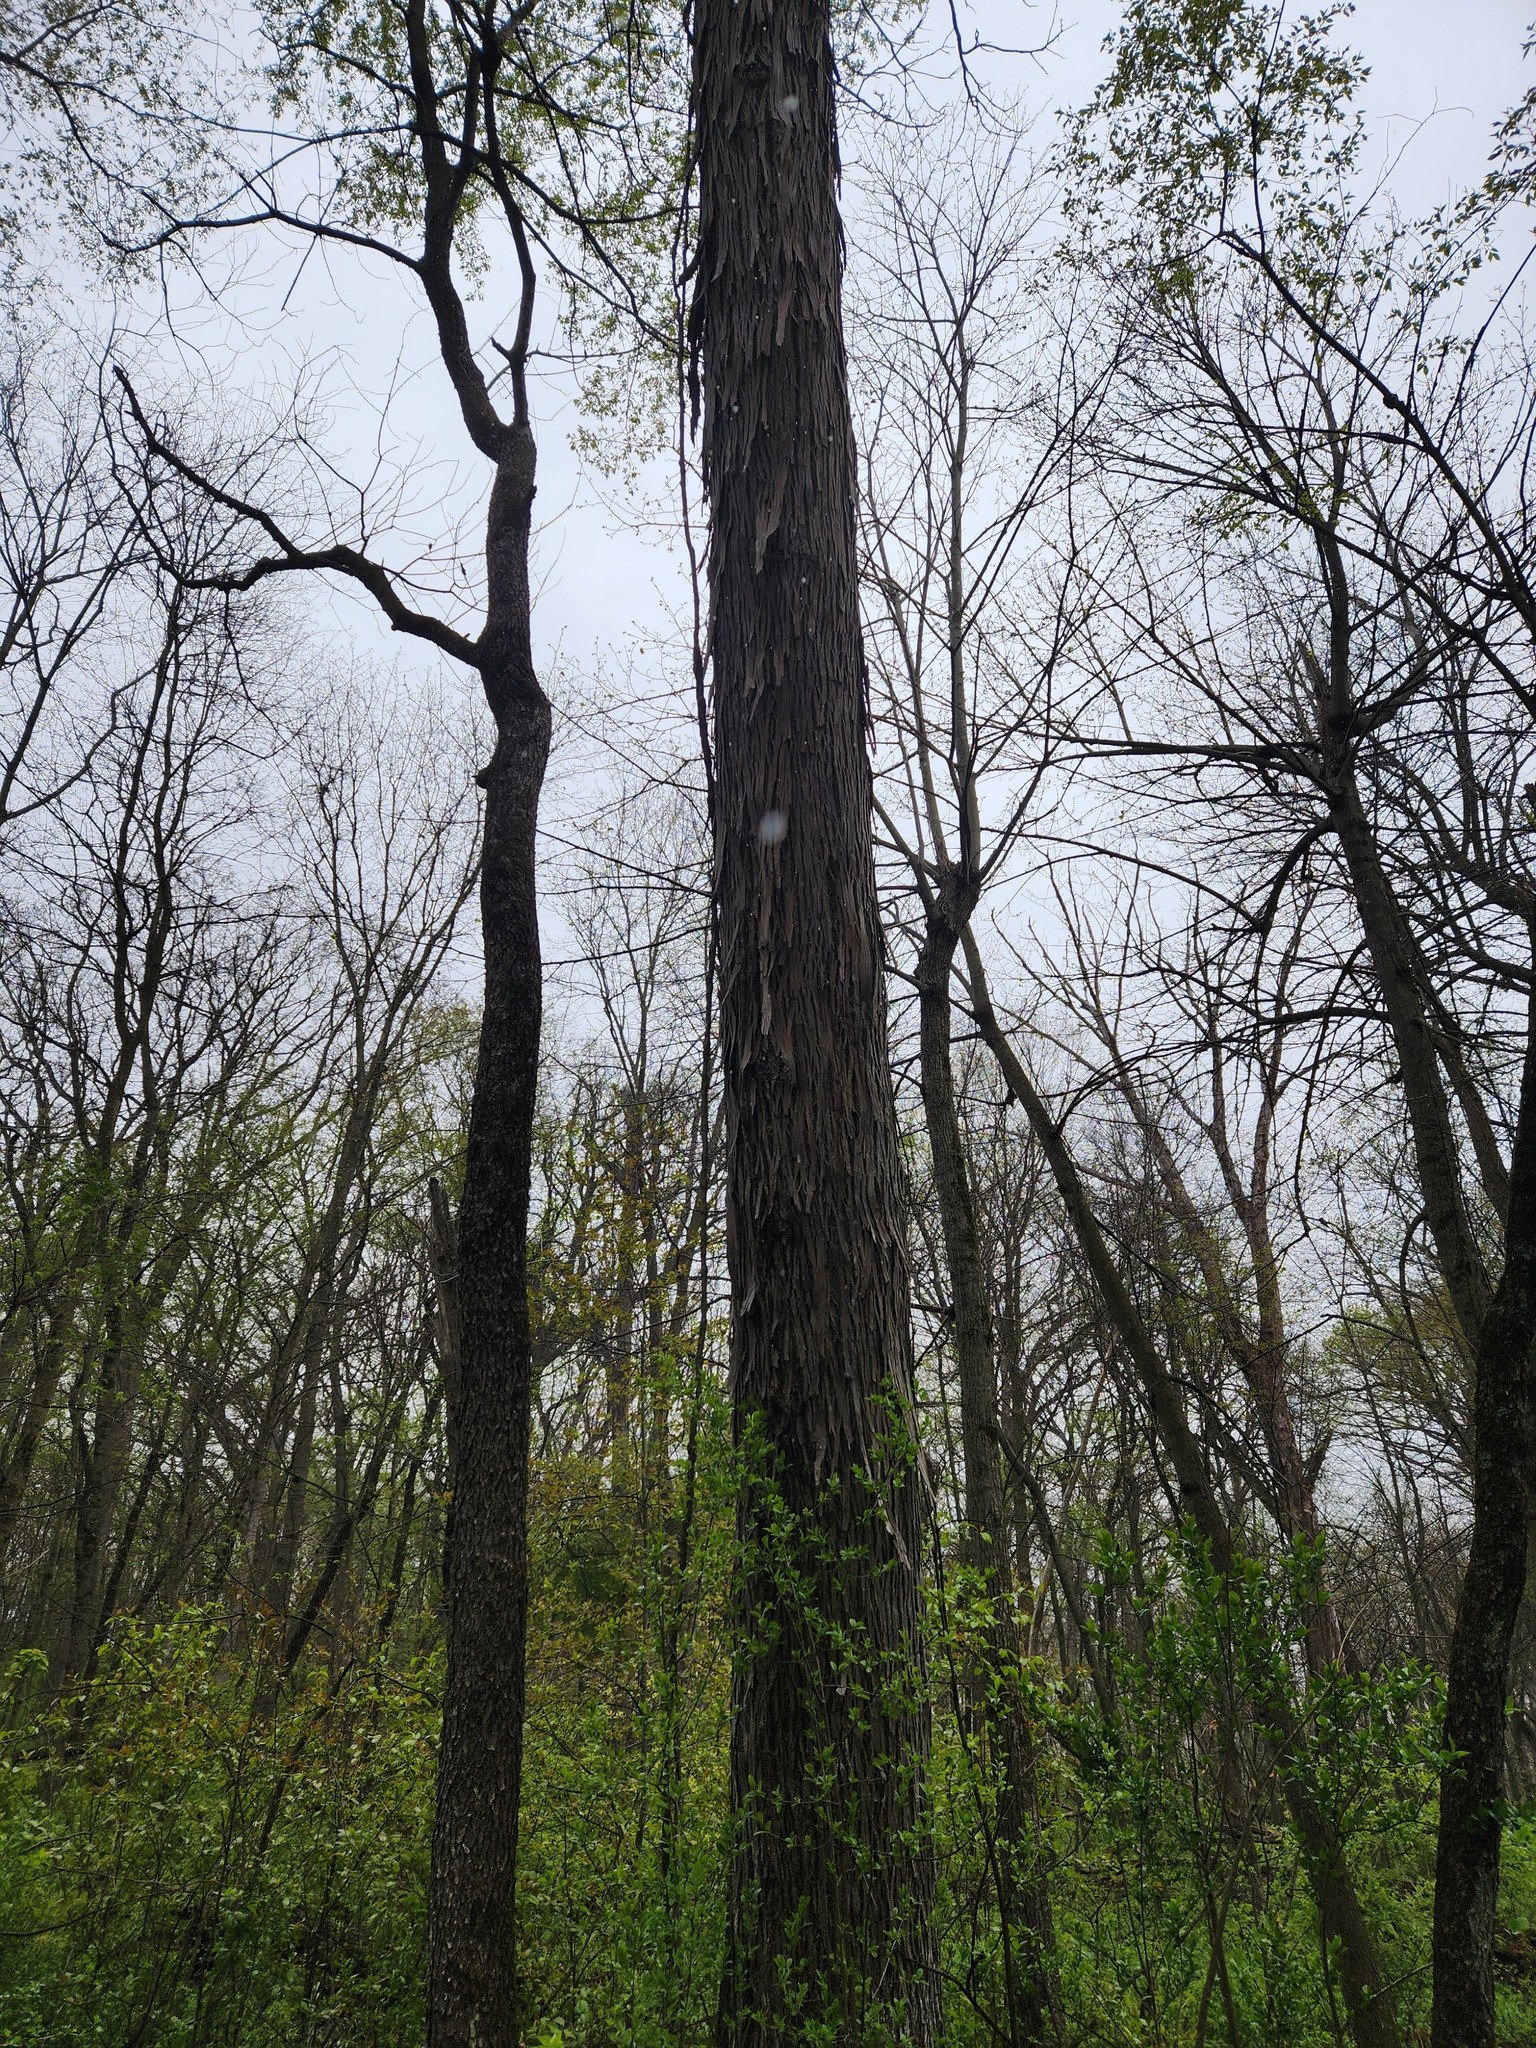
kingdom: Plantae
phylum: Tracheophyta
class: Magnoliopsida
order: Fagales
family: Juglandaceae
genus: Carya
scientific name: Carya ovata
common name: Shagbark hickory
